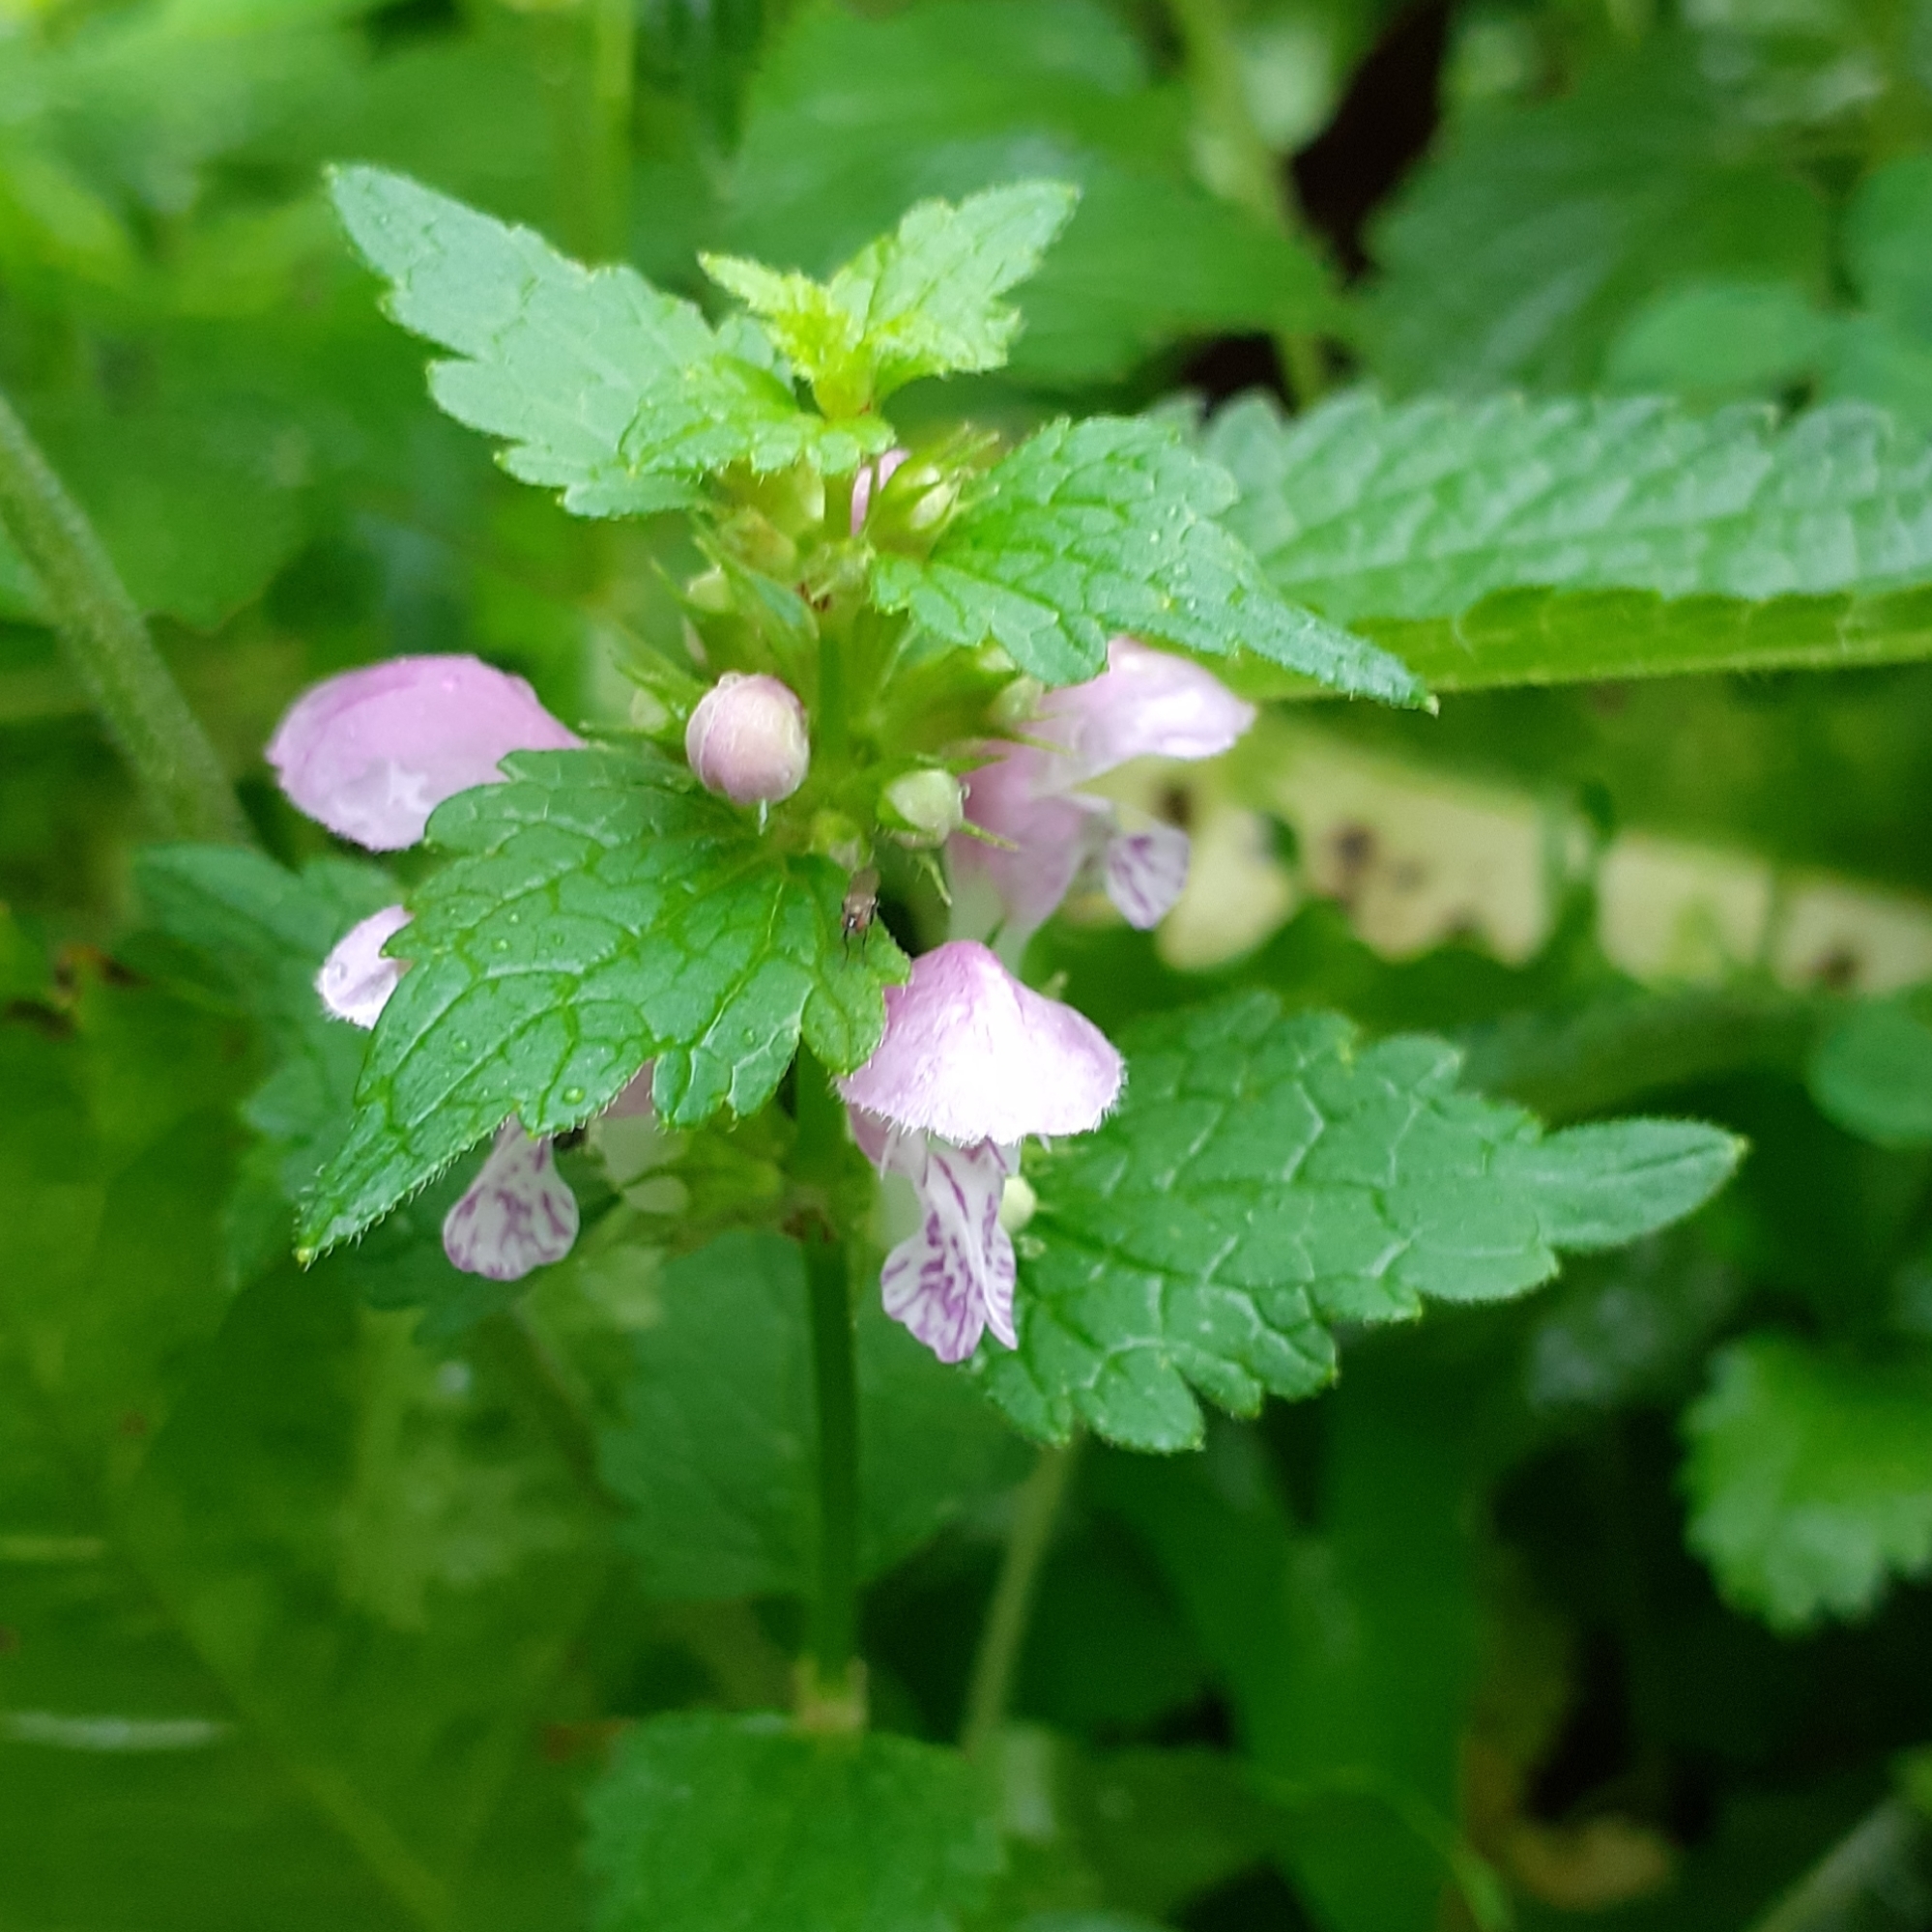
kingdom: Plantae
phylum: Tracheophyta
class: Magnoliopsida
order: Lamiales
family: Lamiaceae
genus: Lamium
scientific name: Lamium maculatum
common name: Spotted dead-nettle
